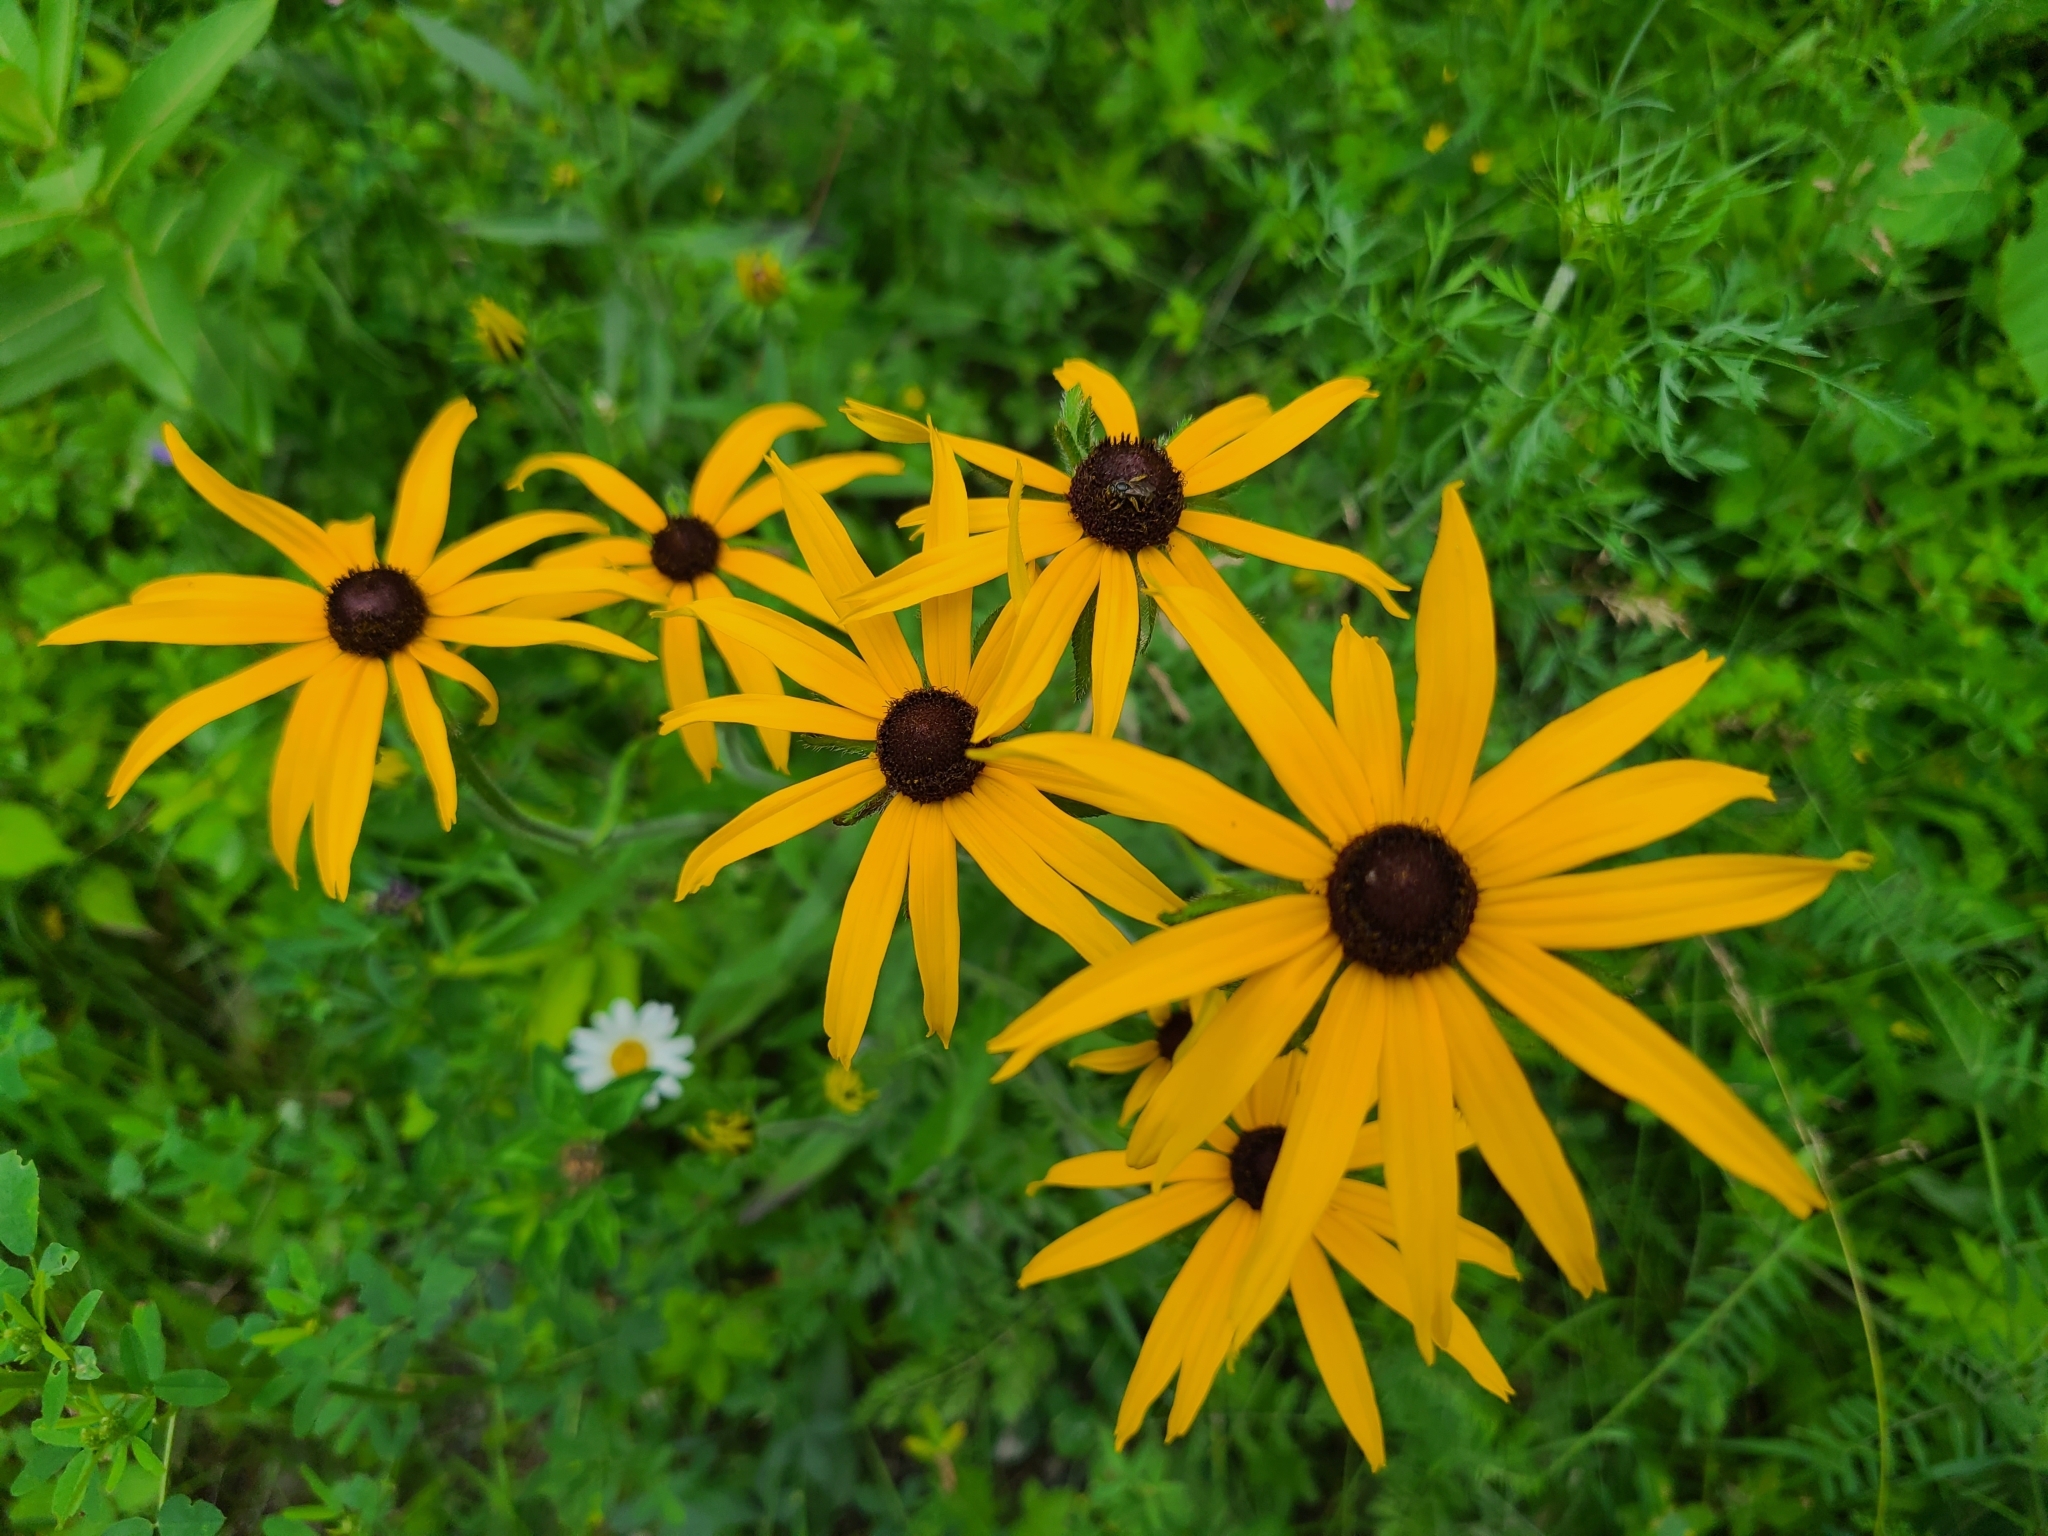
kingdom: Plantae
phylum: Tracheophyta
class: Magnoliopsida
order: Asterales
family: Asteraceae
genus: Rudbeckia
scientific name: Rudbeckia hirta
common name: Black-eyed-susan
